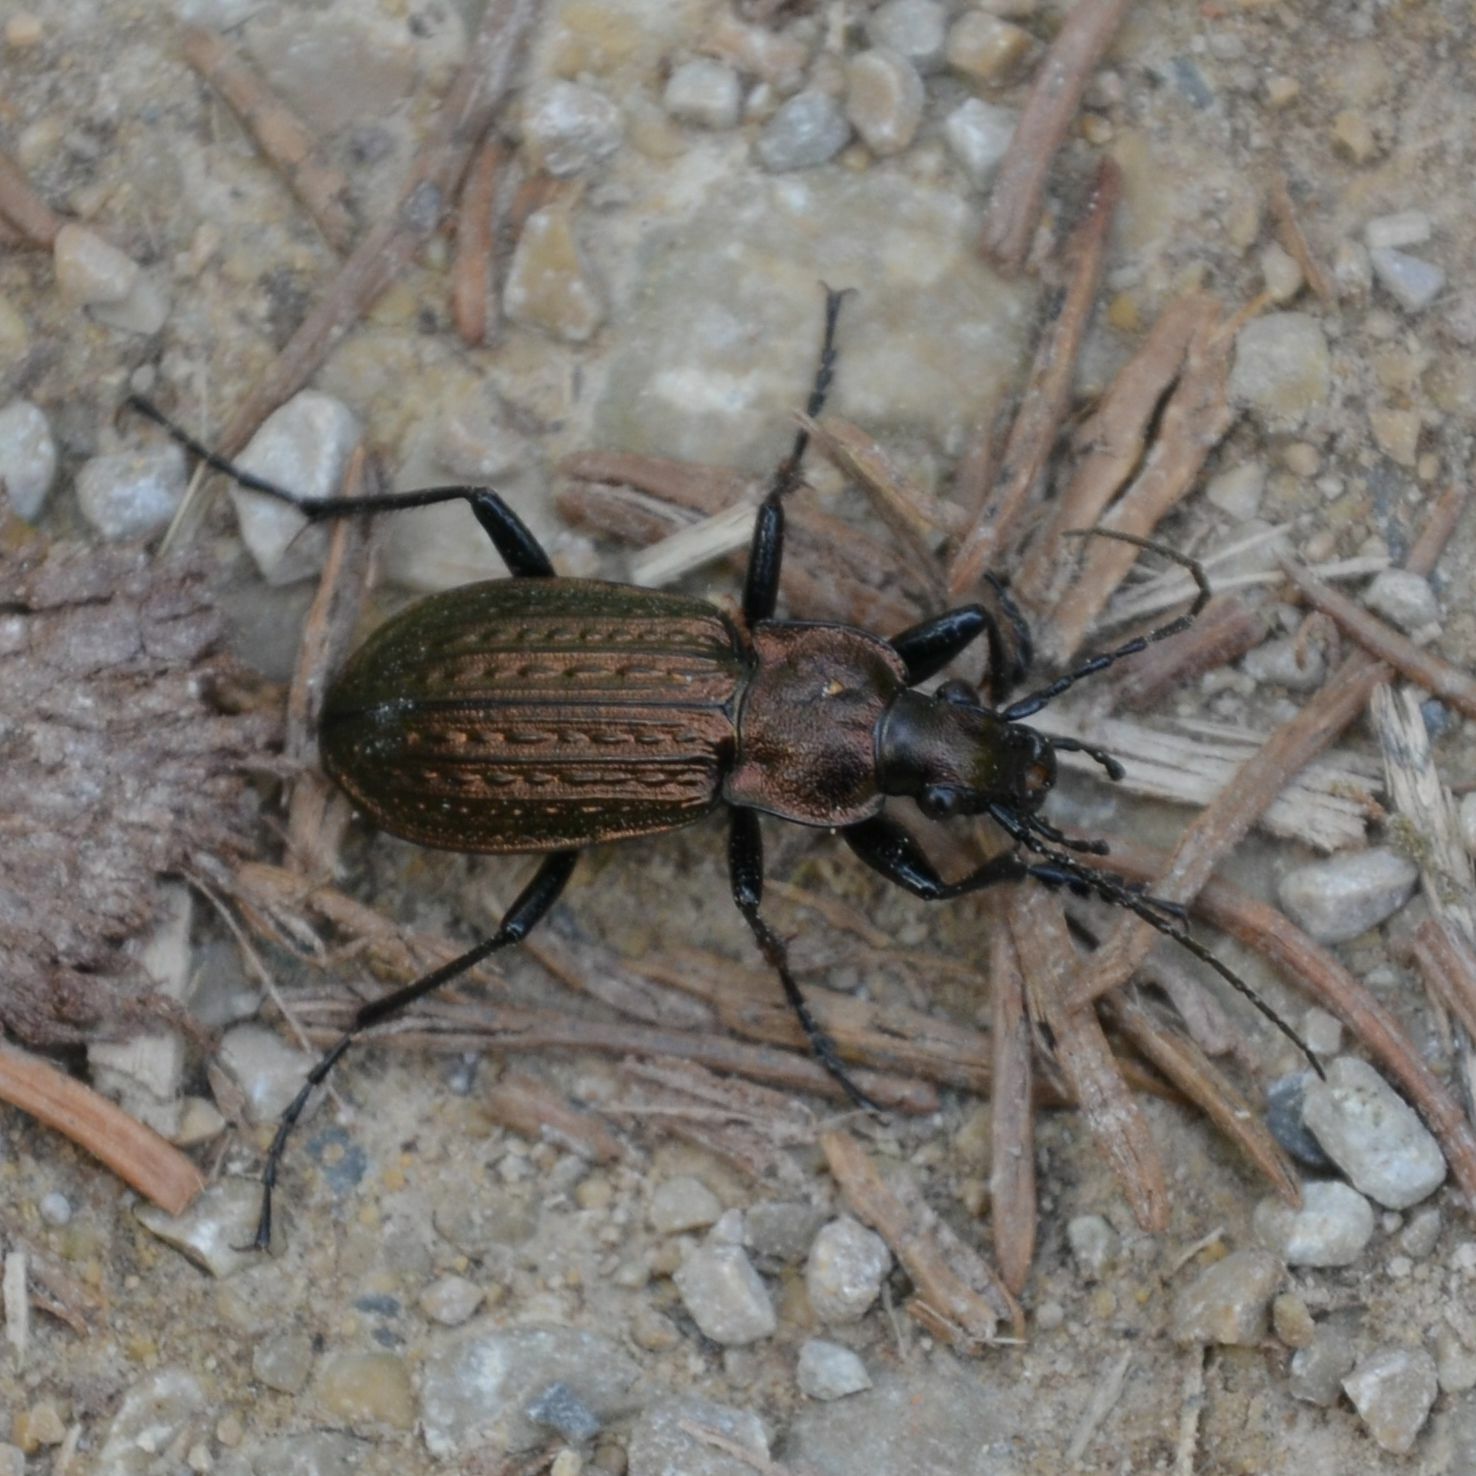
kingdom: Animalia
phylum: Arthropoda
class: Insecta
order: Coleoptera
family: Carabidae
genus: Carabus
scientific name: Carabus granulatus
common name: Granulate ground beetle
